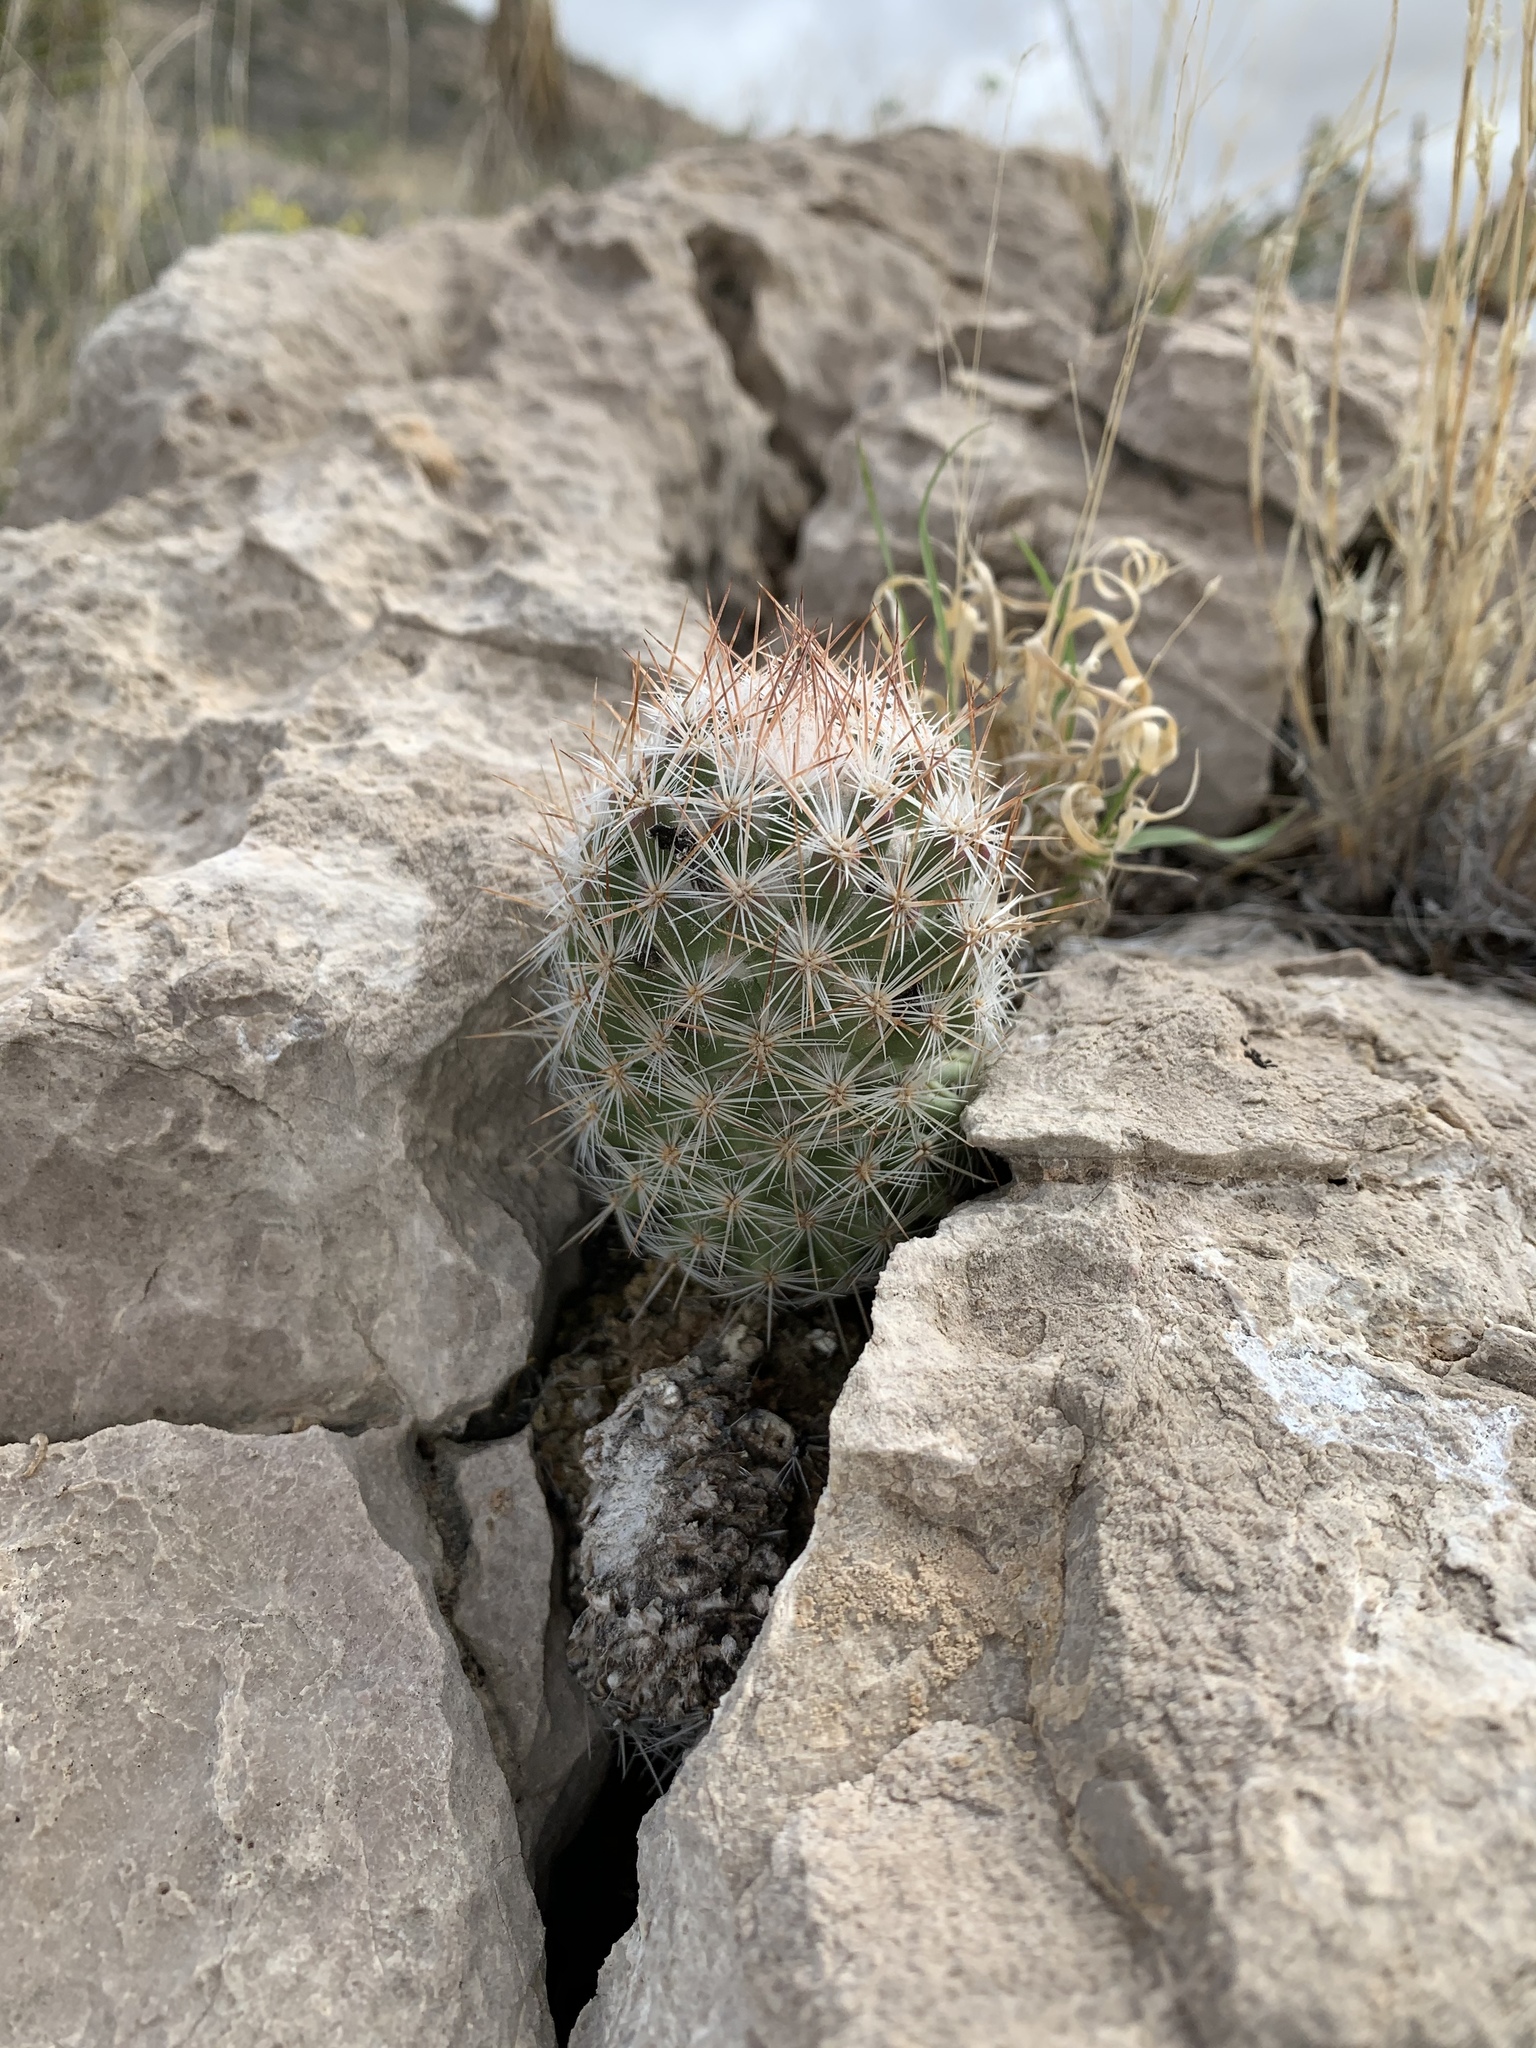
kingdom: Plantae
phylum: Tracheophyta
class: Magnoliopsida
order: Caryophyllales
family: Cactaceae
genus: Pelecyphora
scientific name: Pelecyphora tuberculosa
